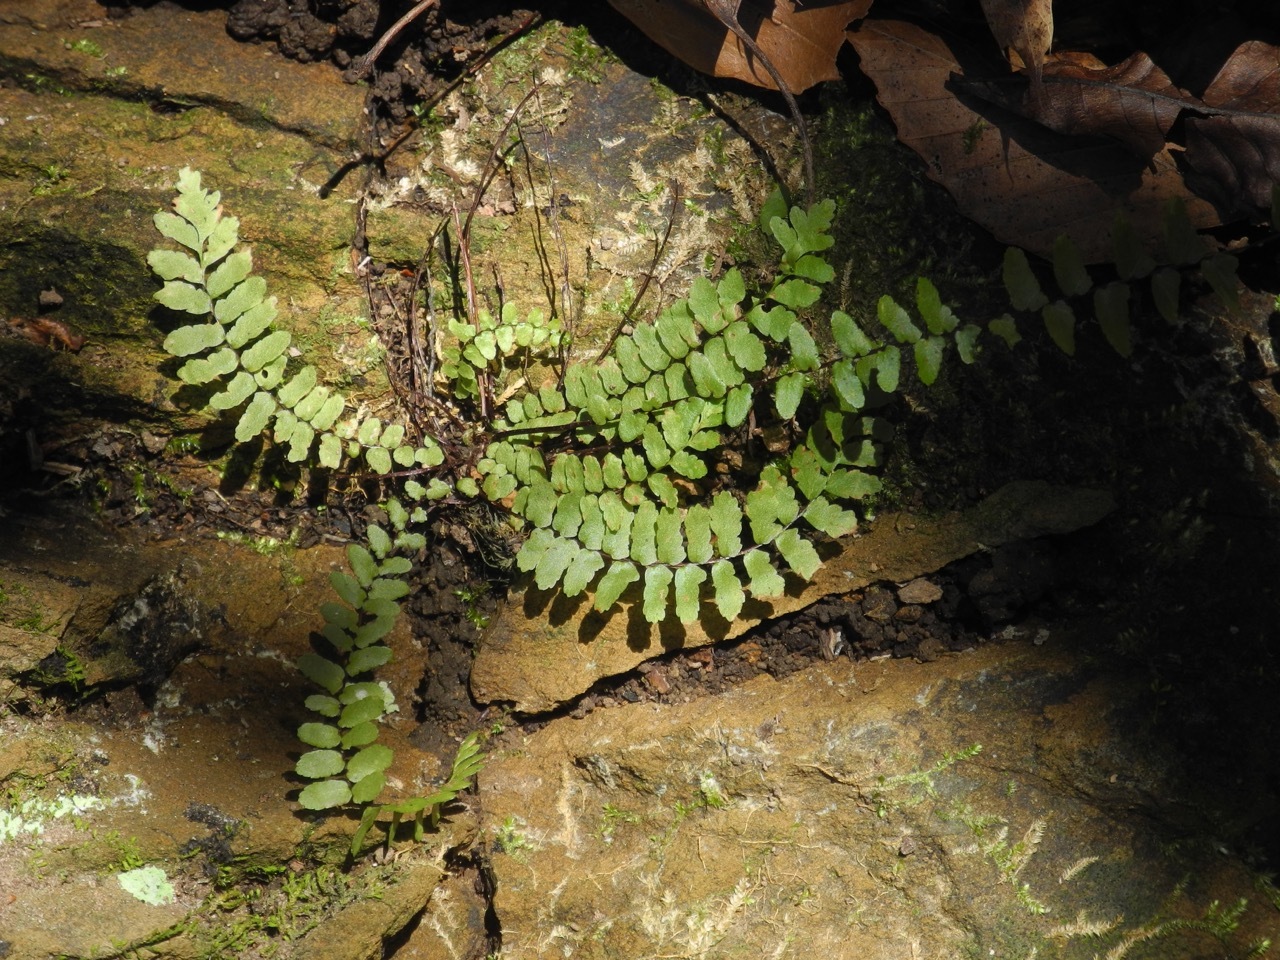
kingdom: Plantae
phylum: Tracheophyta
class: Polypodiopsida
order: Polypodiales
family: Aspleniaceae
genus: Asplenium
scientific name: Asplenium platyneuron
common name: Ebony spleenwort
